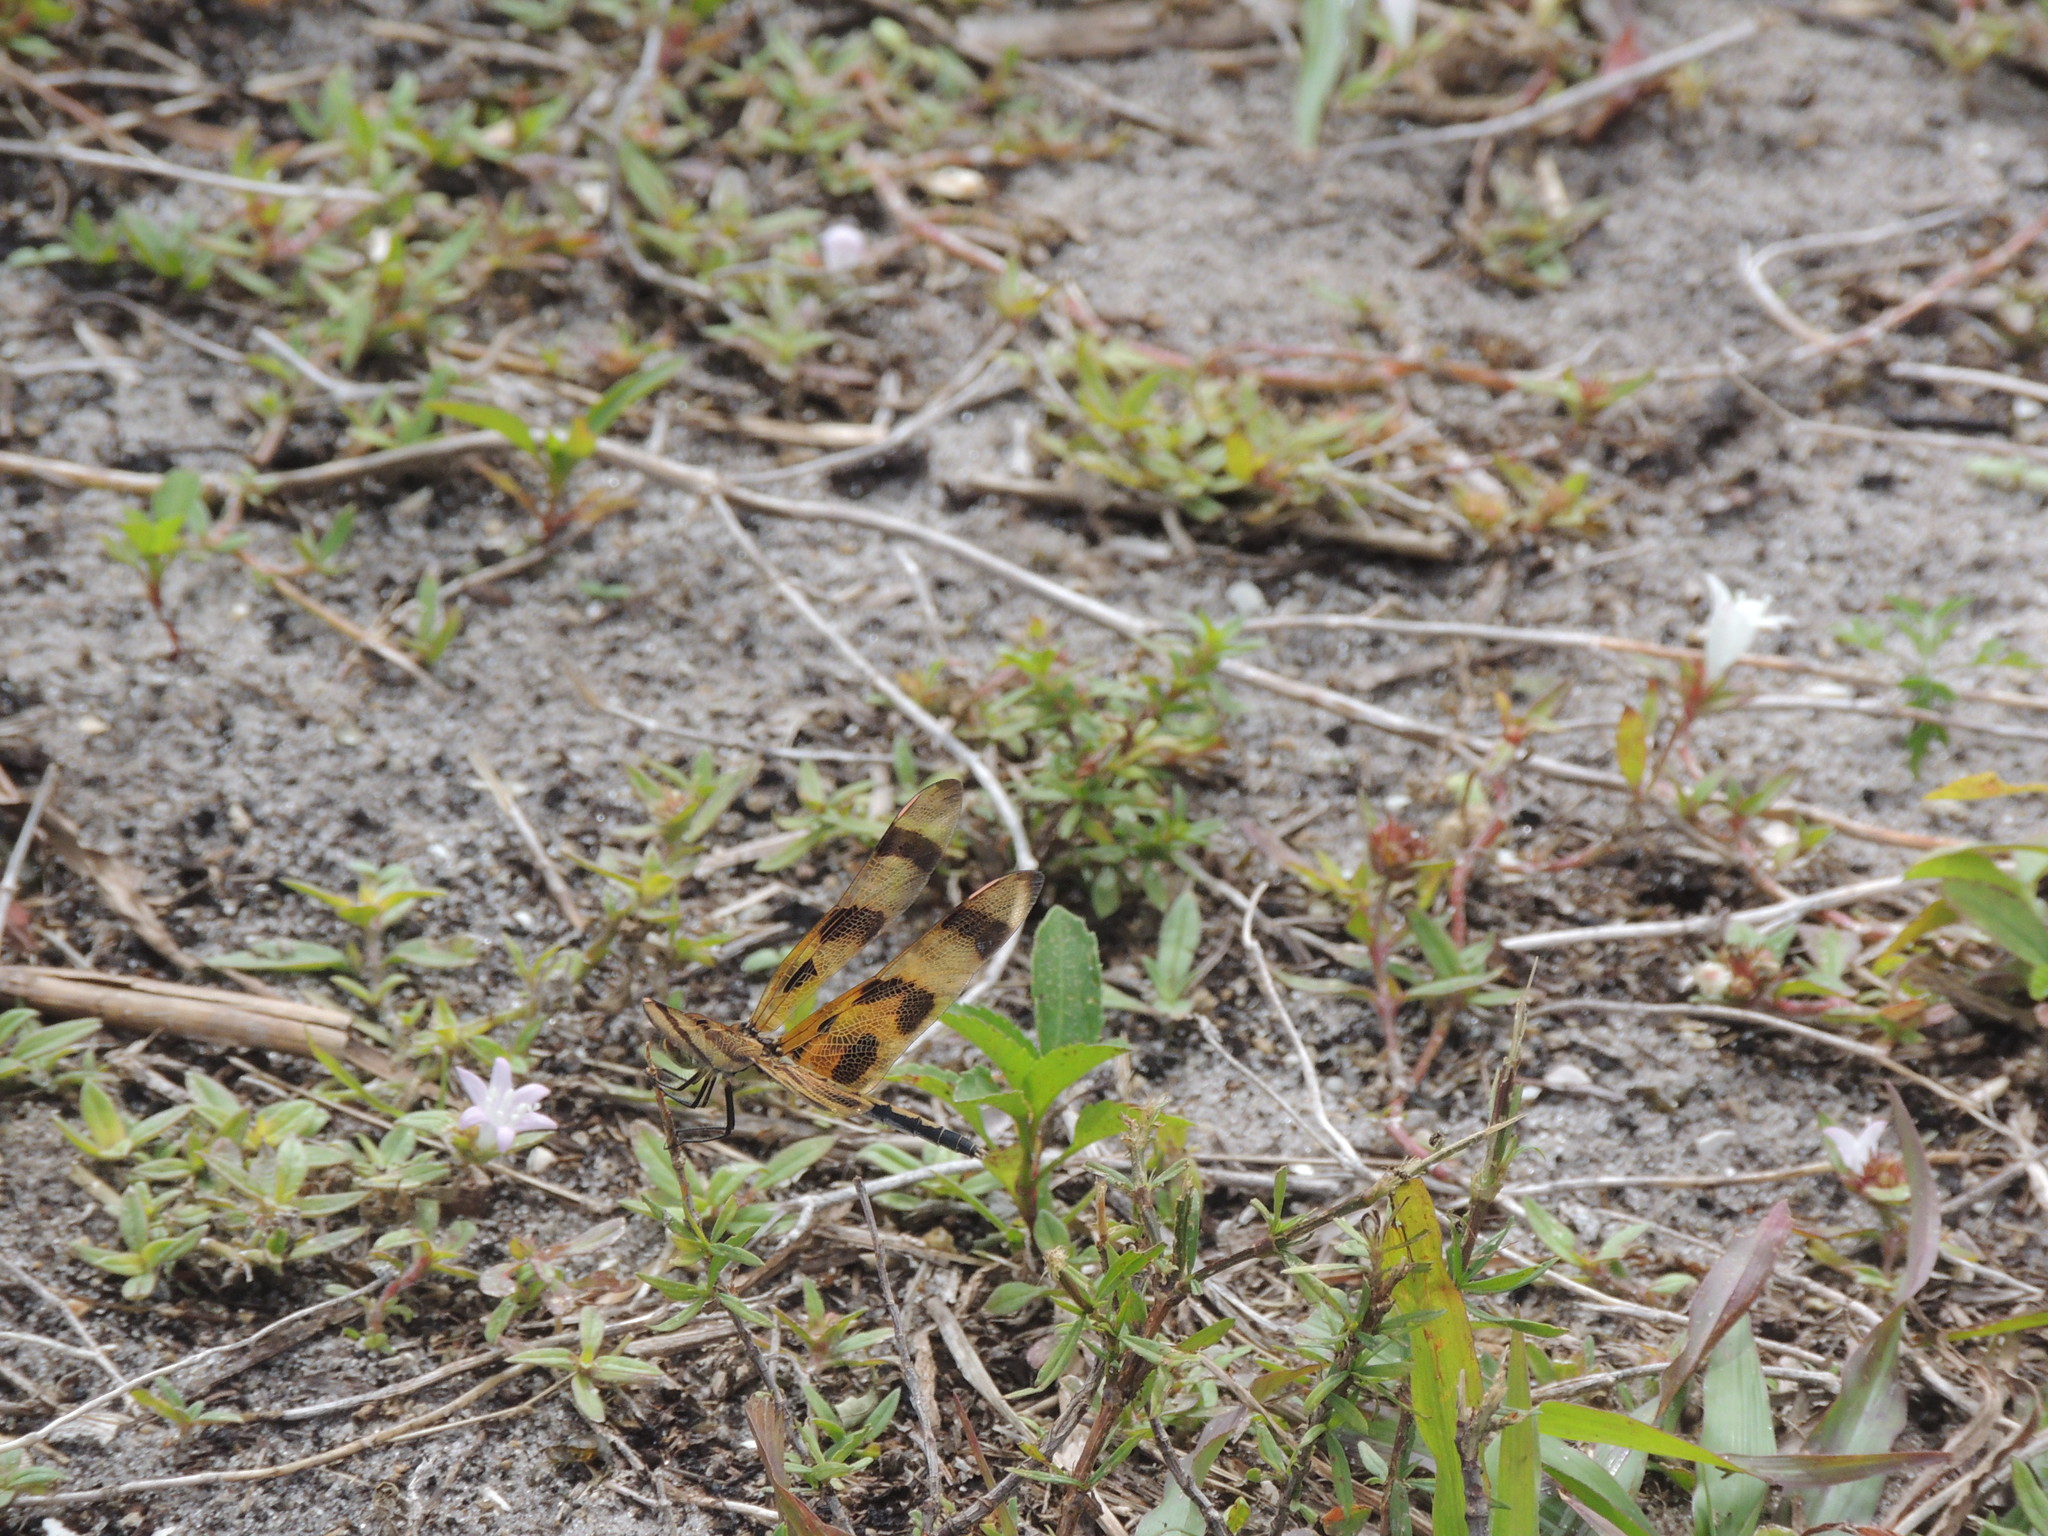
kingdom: Animalia
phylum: Arthropoda
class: Insecta
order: Odonata
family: Libellulidae
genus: Celithemis
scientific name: Celithemis eponina
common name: Halloween pennant
